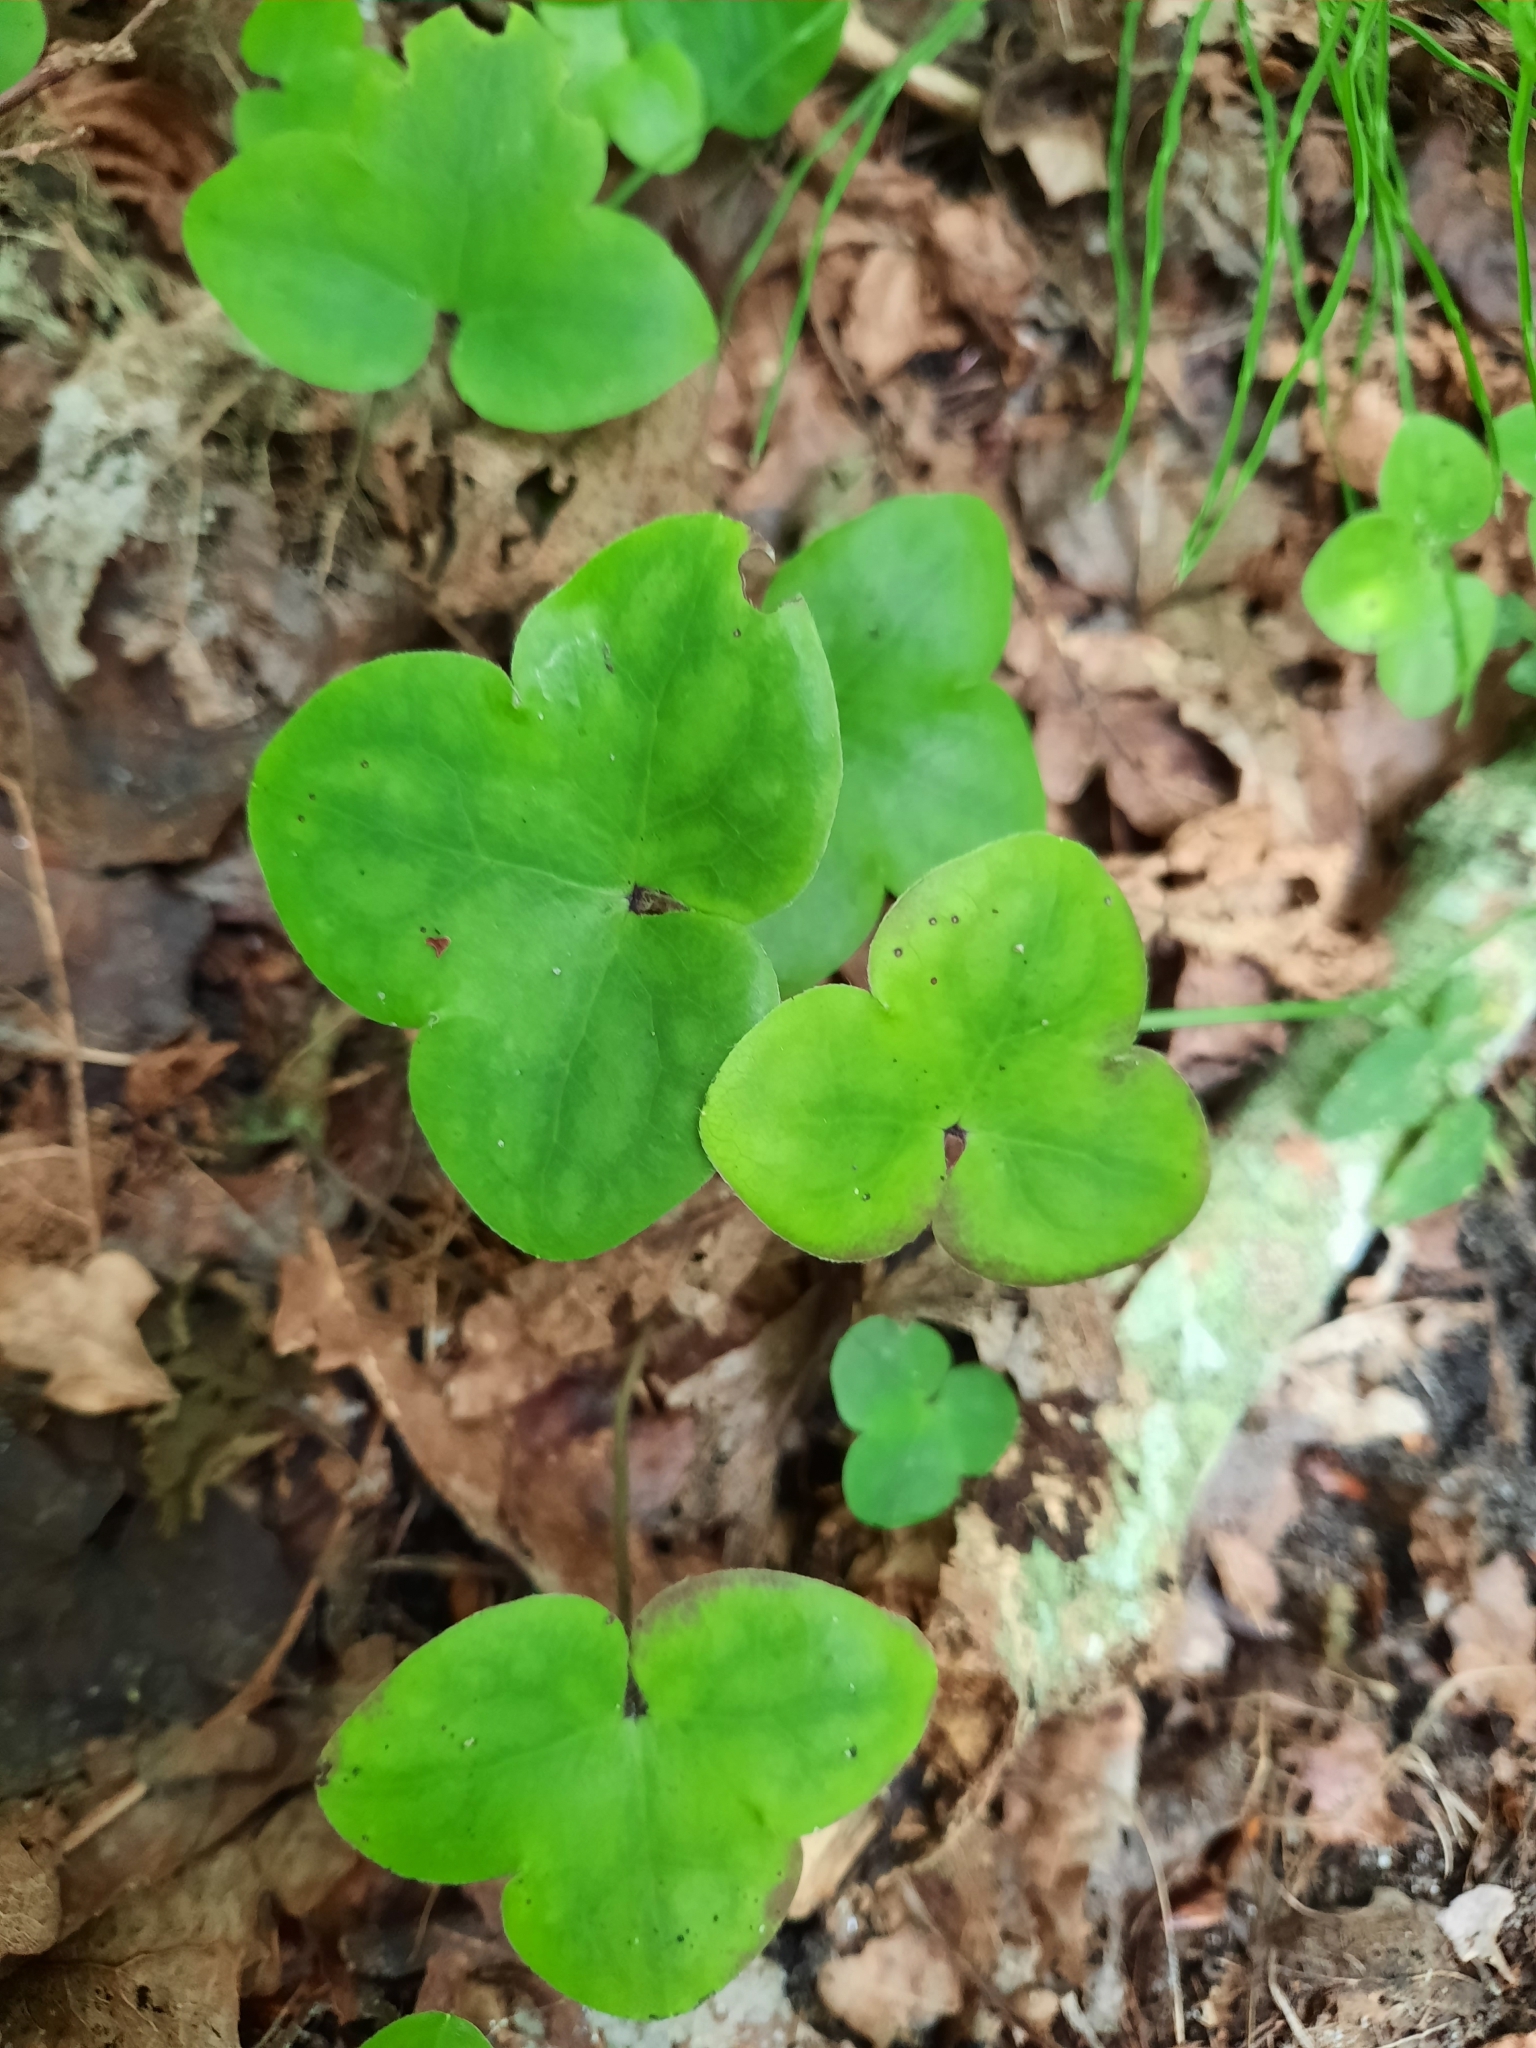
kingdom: Plantae
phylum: Tracheophyta
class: Magnoliopsida
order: Ranunculales
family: Ranunculaceae
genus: Hepatica
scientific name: Hepatica nobilis
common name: Liverleaf
